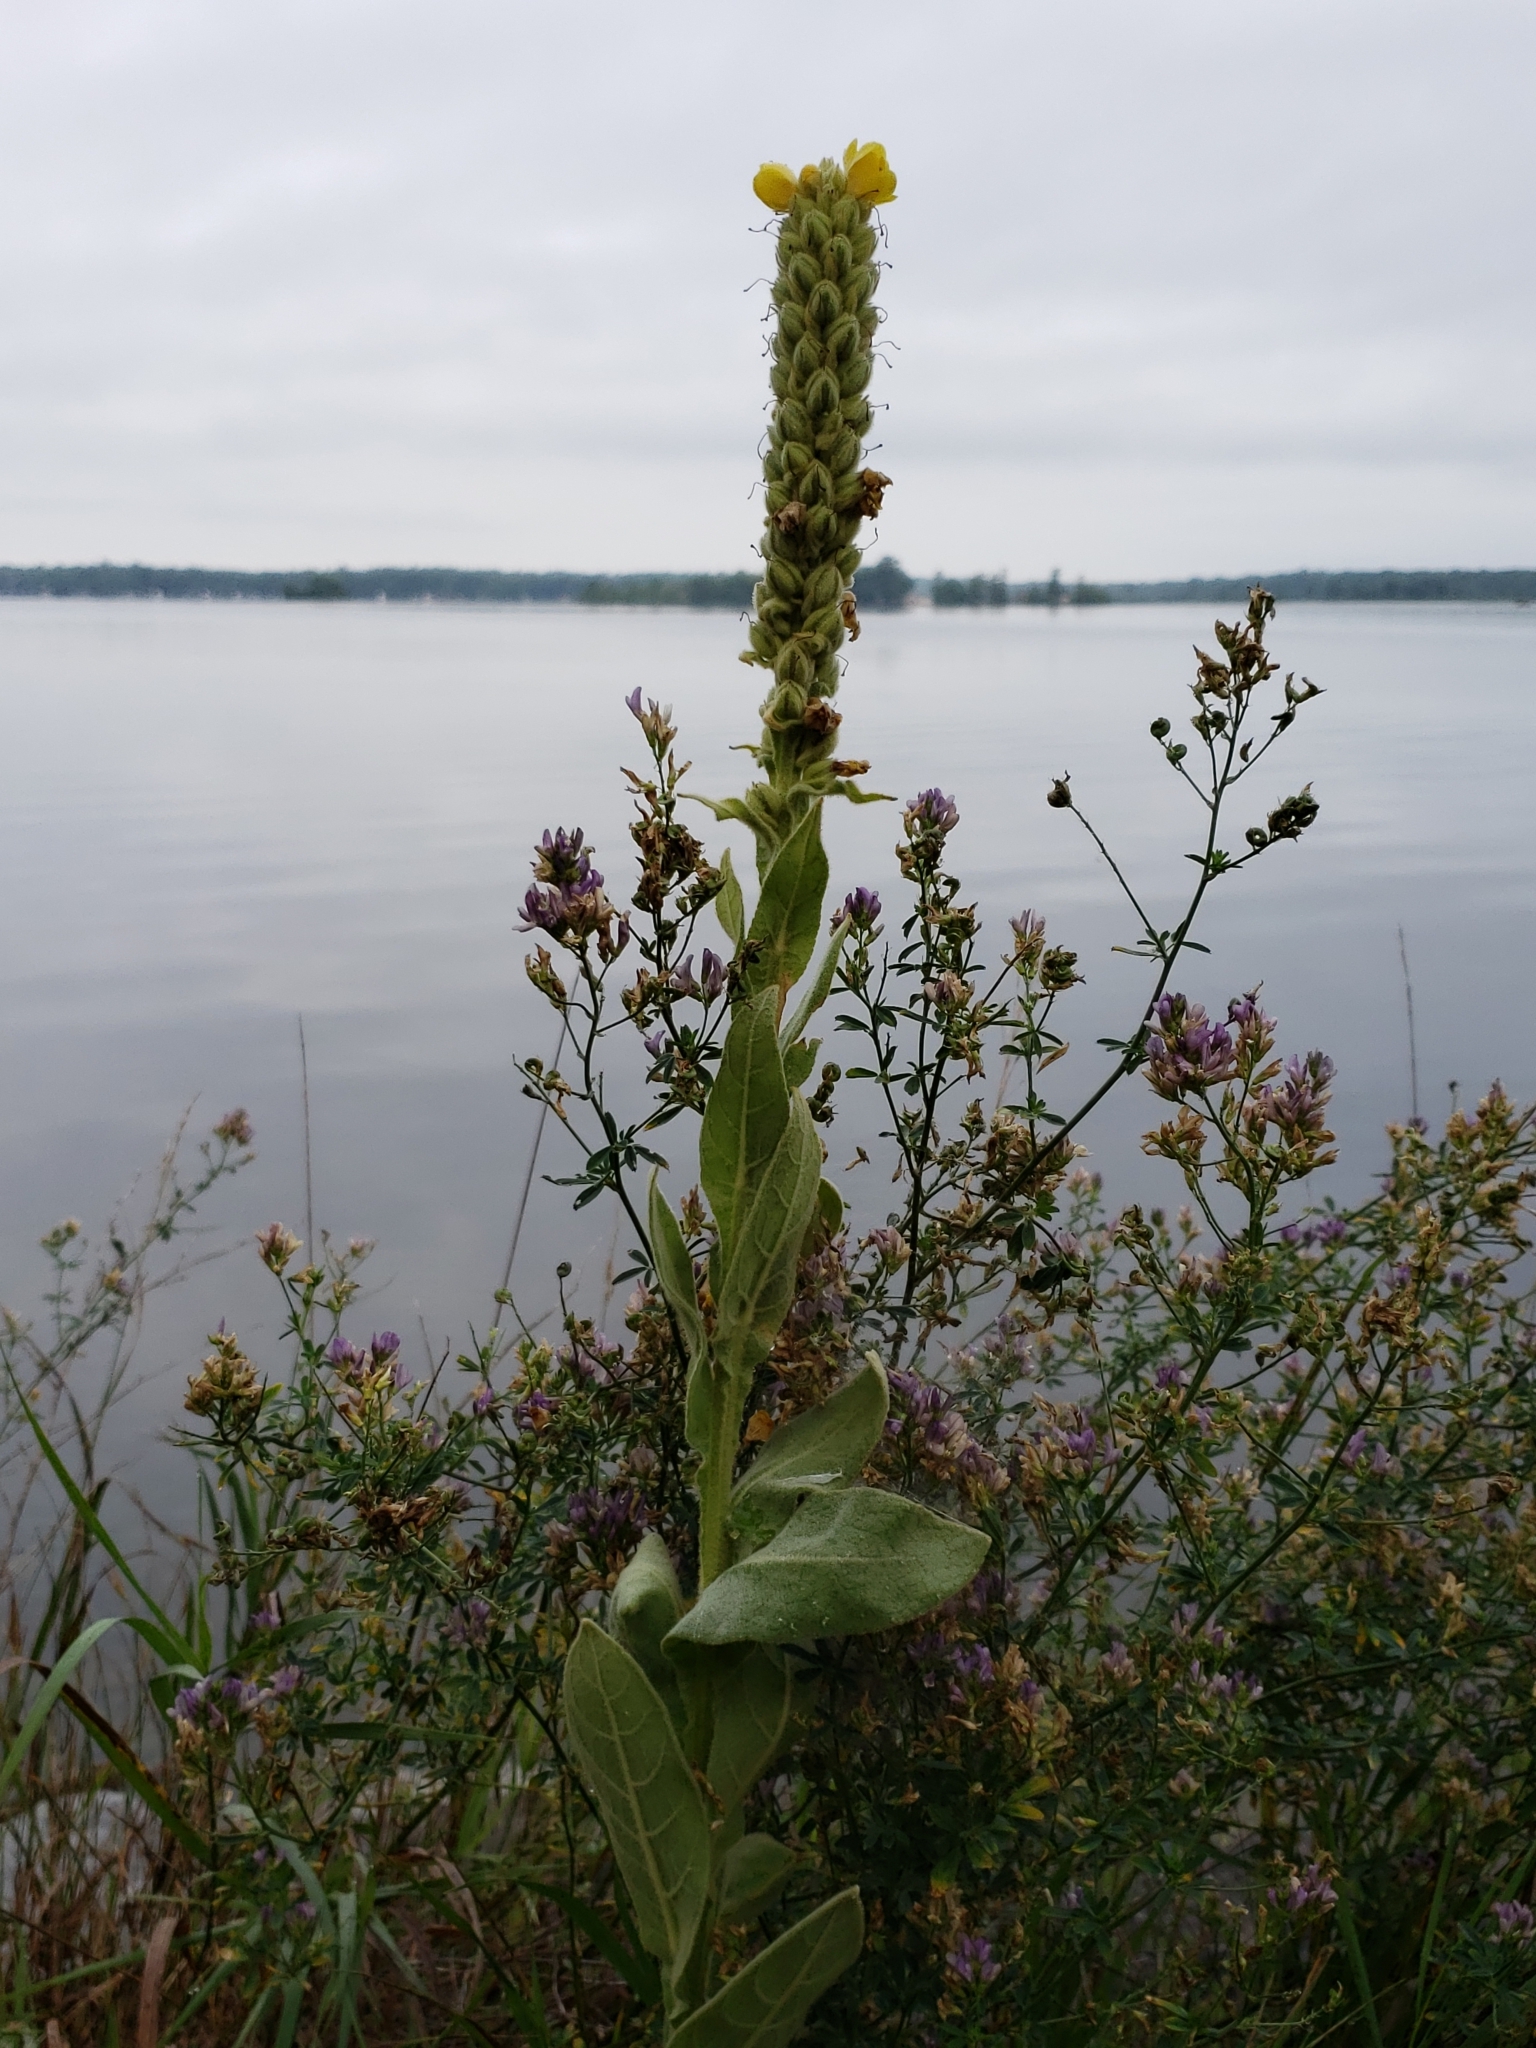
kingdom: Plantae
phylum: Tracheophyta
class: Magnoliopsida
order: Lamiales
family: Scrophulariaceae
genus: Verbascum
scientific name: Verbascum thapsus
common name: Common mullein
